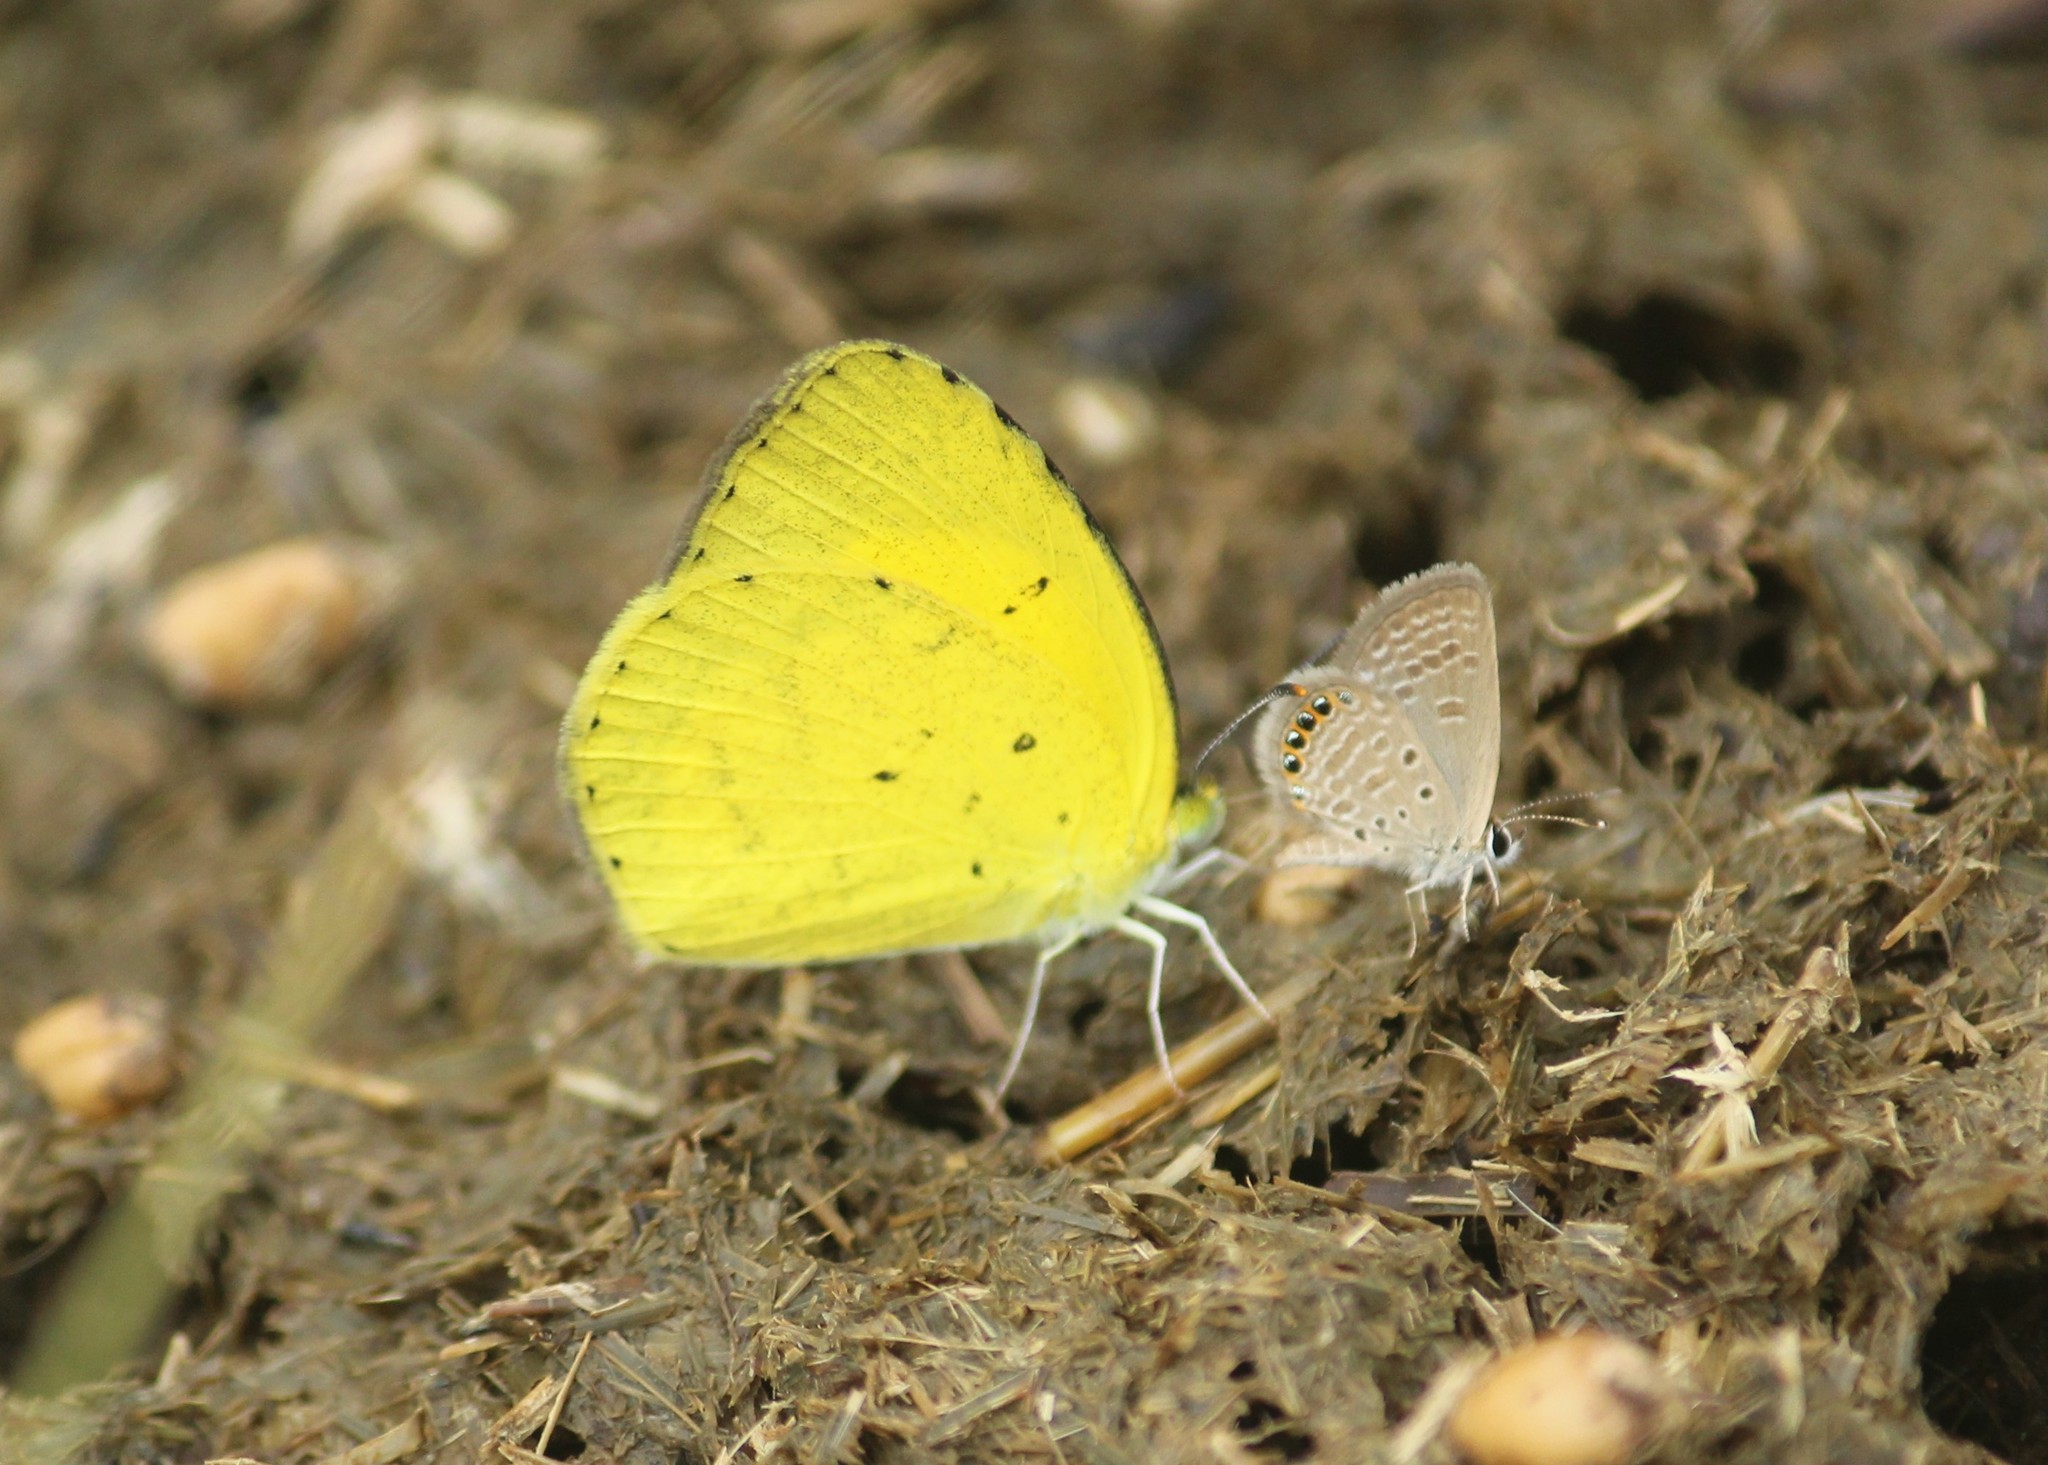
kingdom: Animalia
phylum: Arthropoda
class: Insecta
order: Lepidoptera
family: Pieridae
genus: Eurema
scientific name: Eurema brigitta
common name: Small grass yellow
